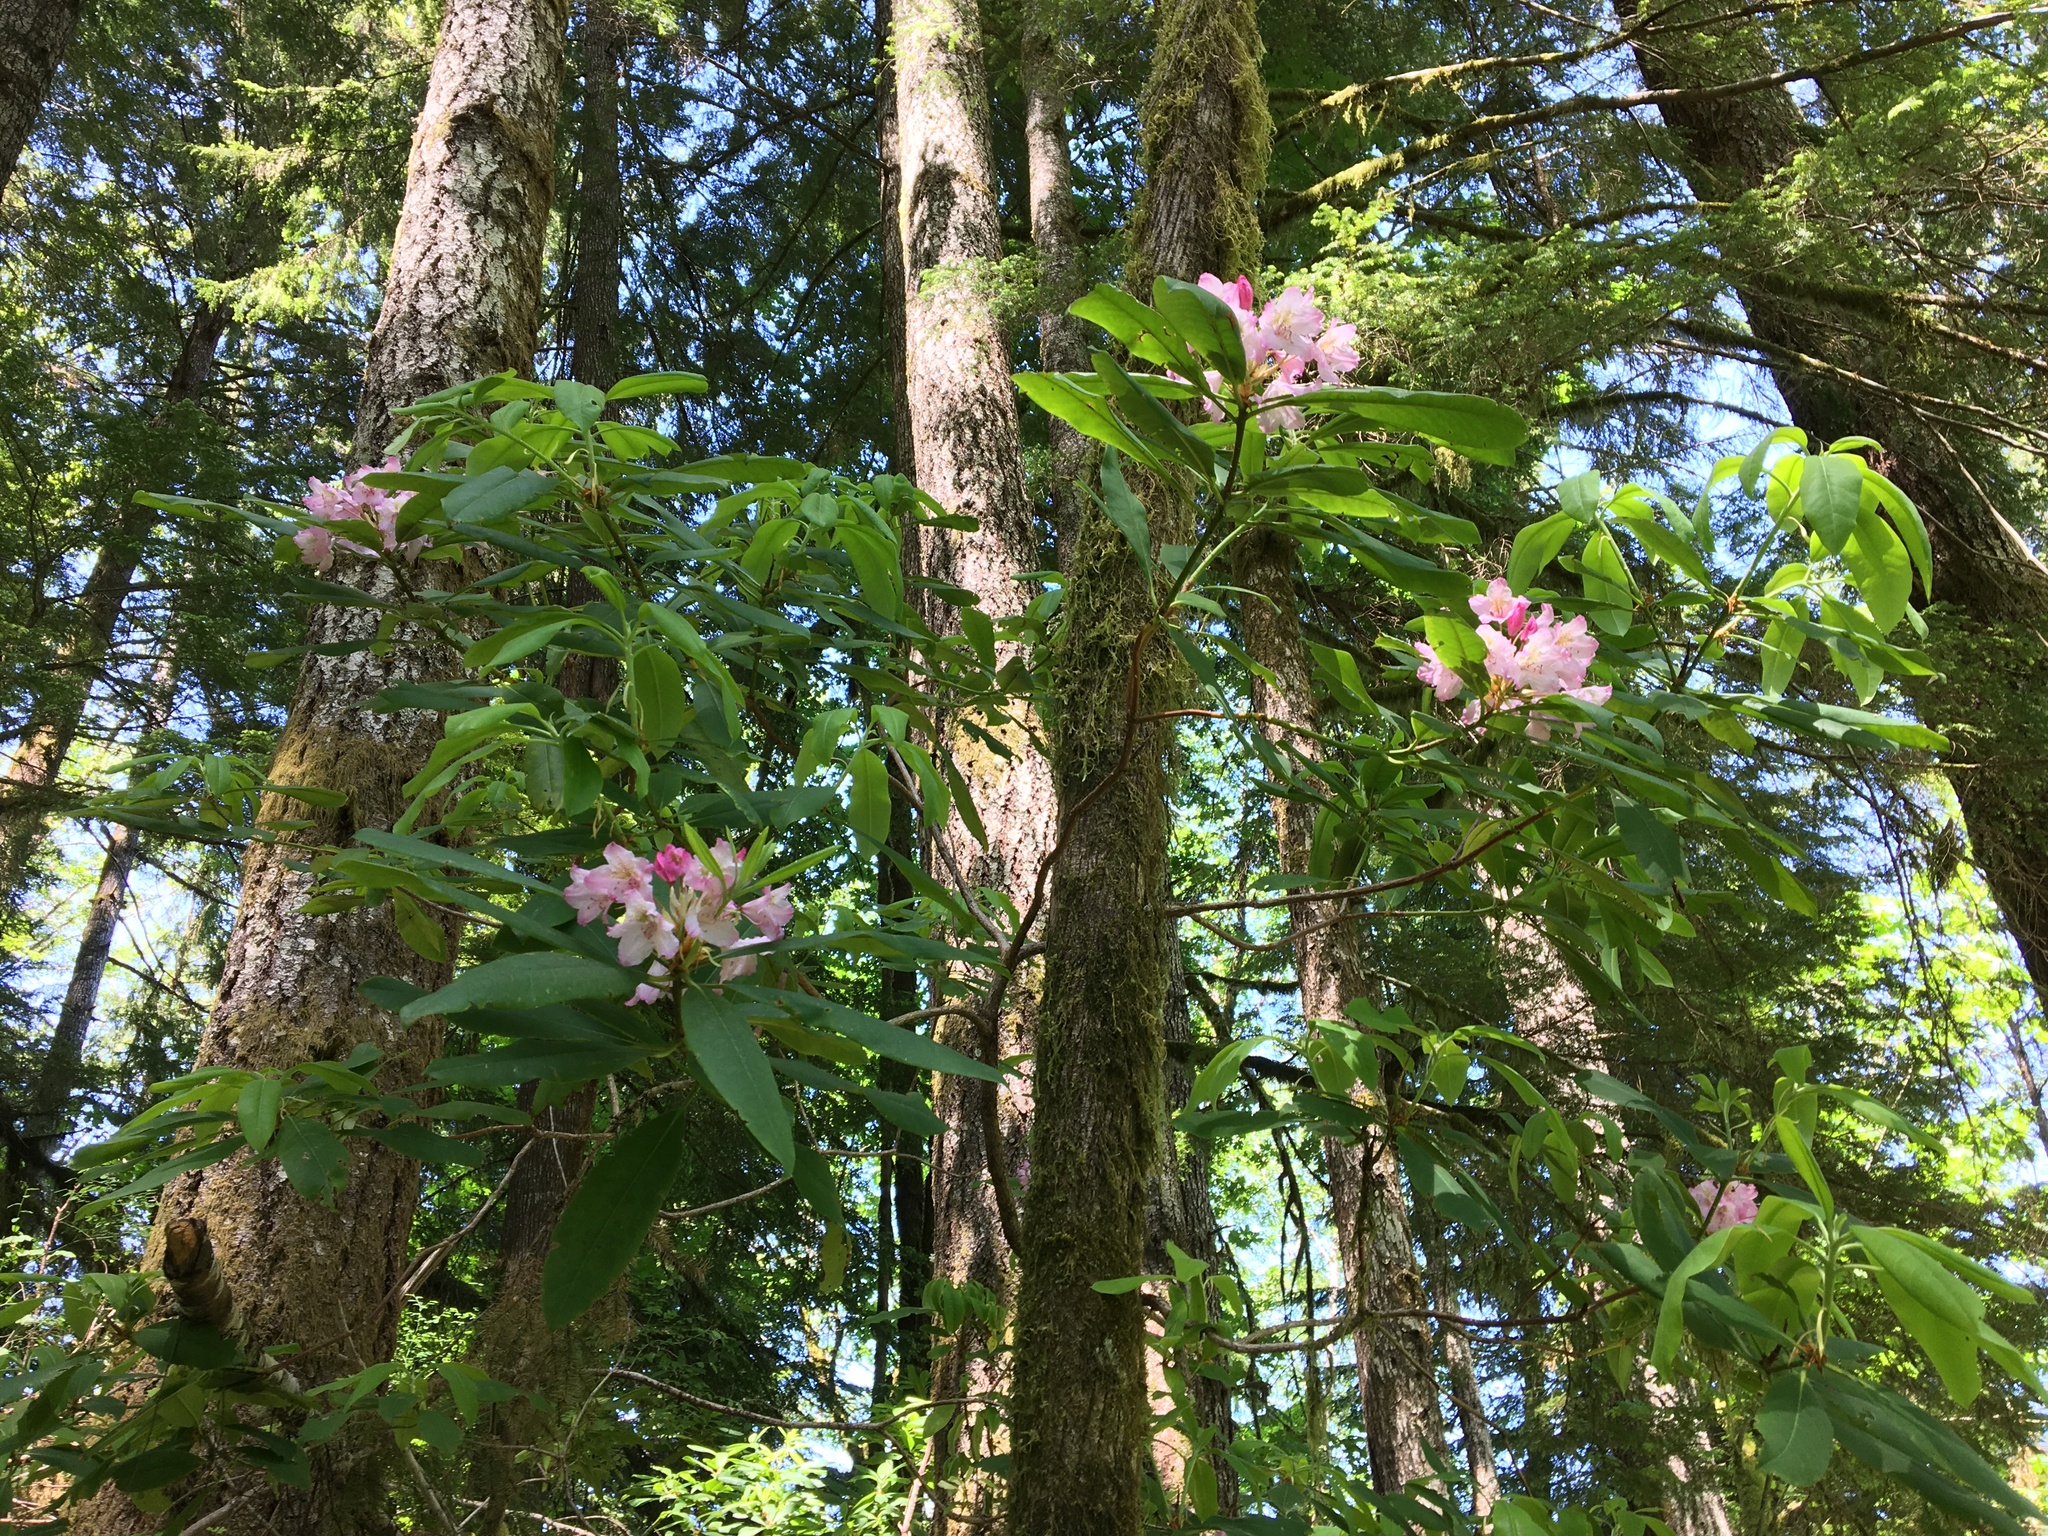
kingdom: Plantae
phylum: Tracheophyta
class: Magnoliopsida
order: Ericales
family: Ericaceae
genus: Rhododendron
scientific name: Rhododendron macrophyllum
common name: California rose bay
